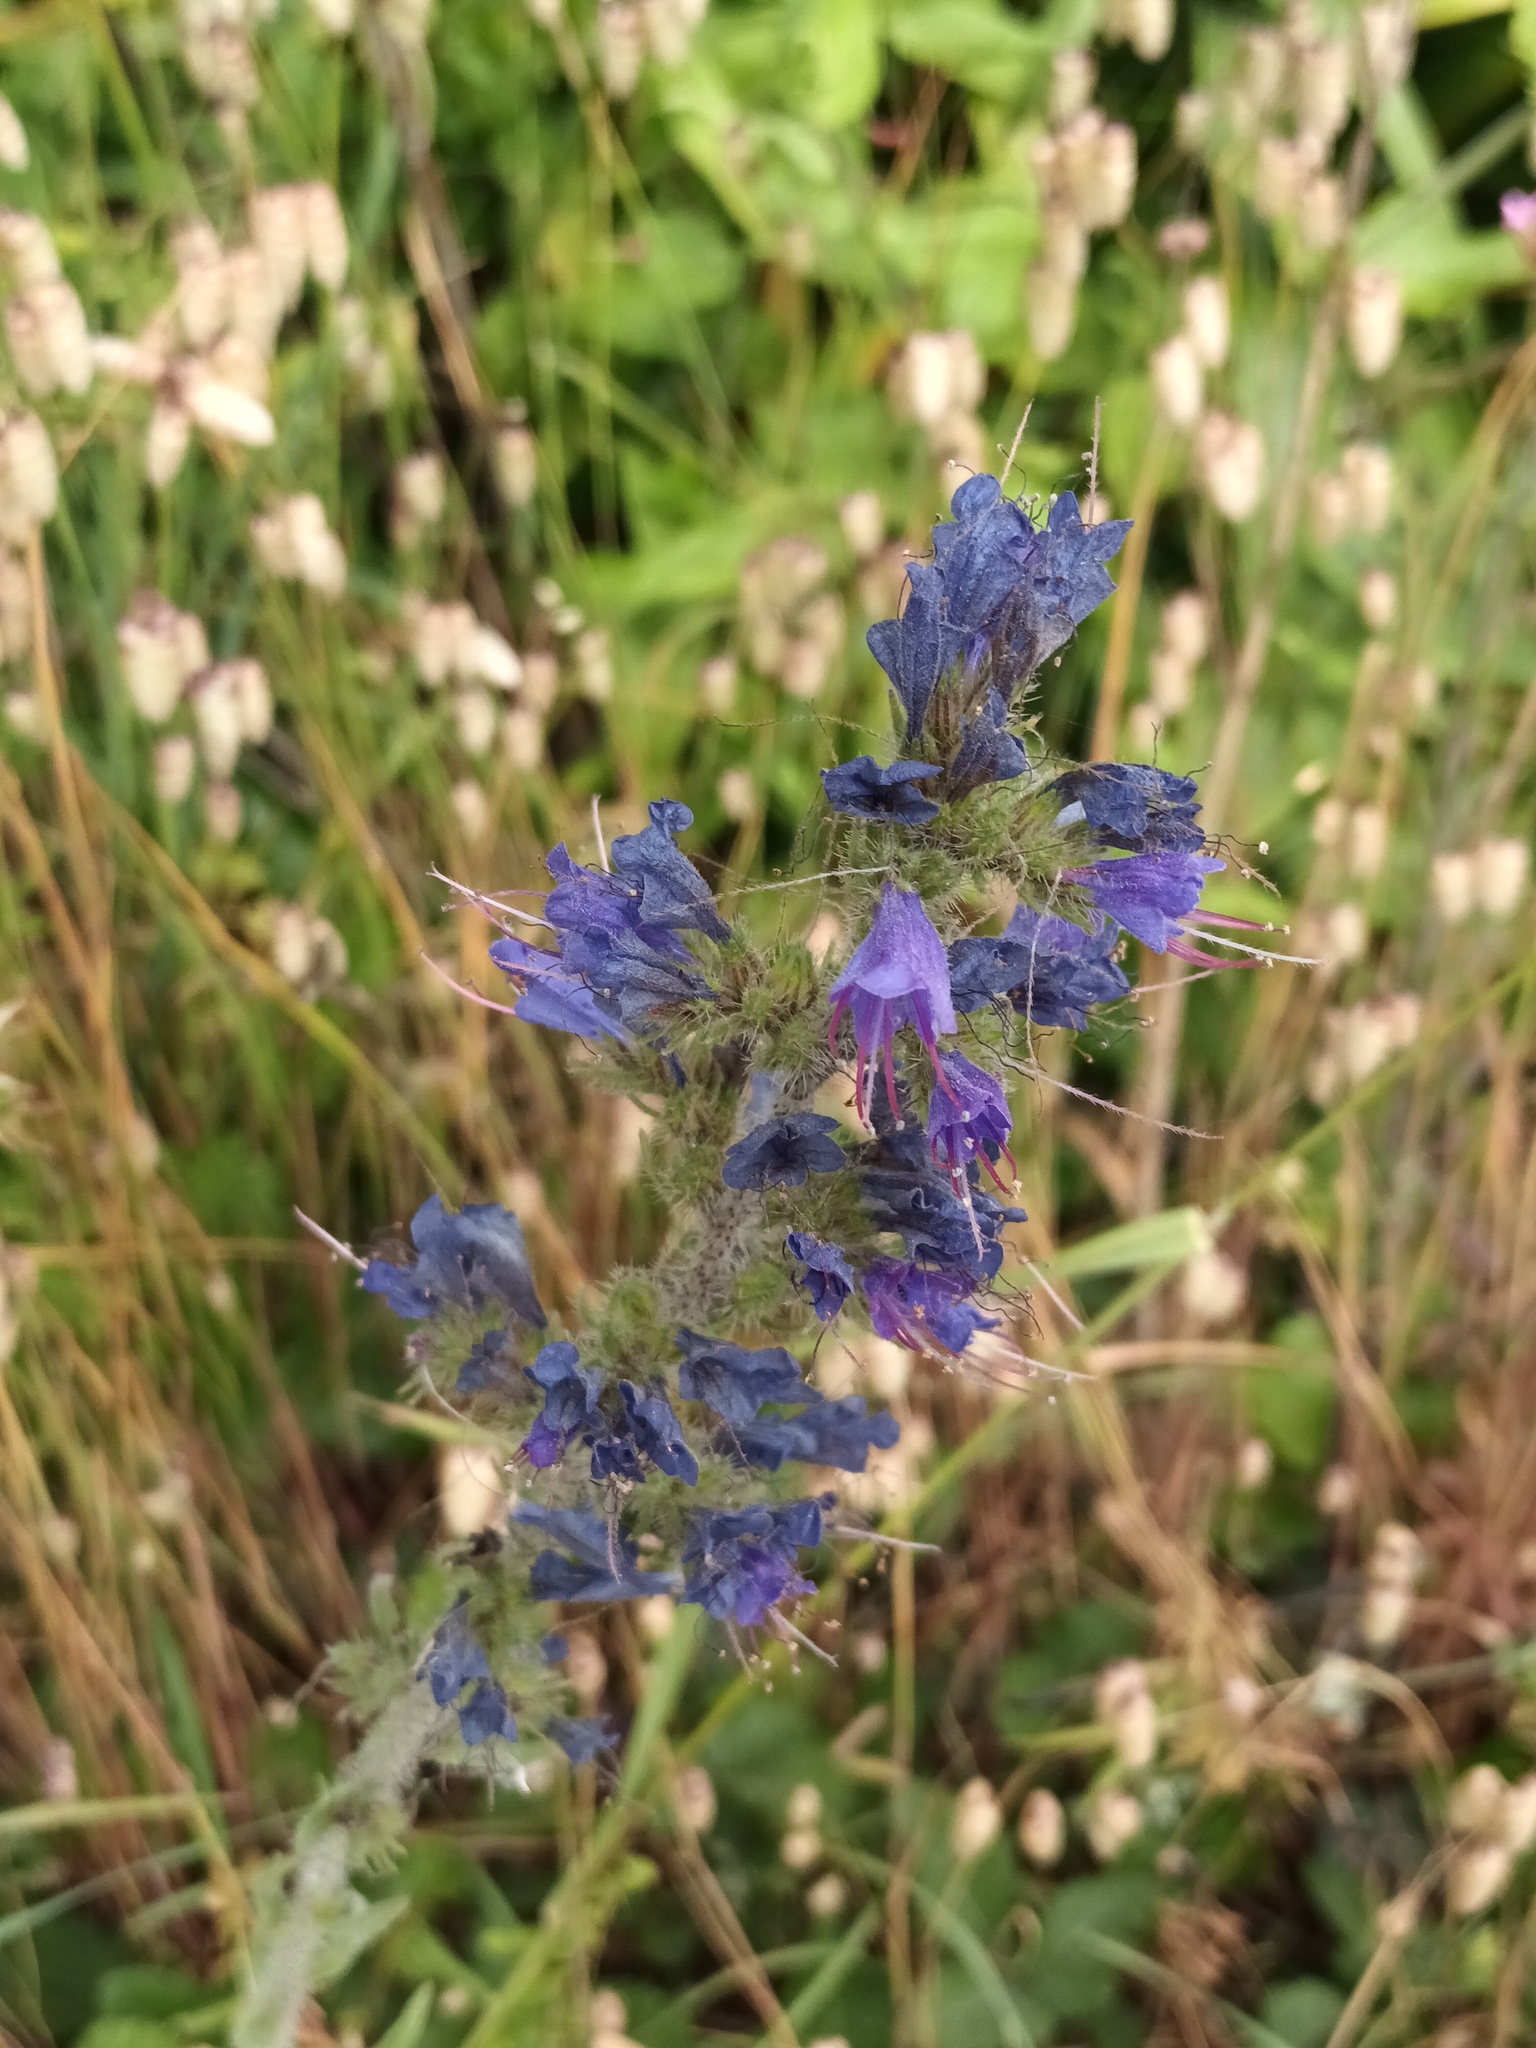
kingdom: Plantae
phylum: Tracheophyta
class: Magnoliopsida
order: Boraginales
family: Boraginaceae
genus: Echium
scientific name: Echium vulgare
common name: Common viper's bugloss
